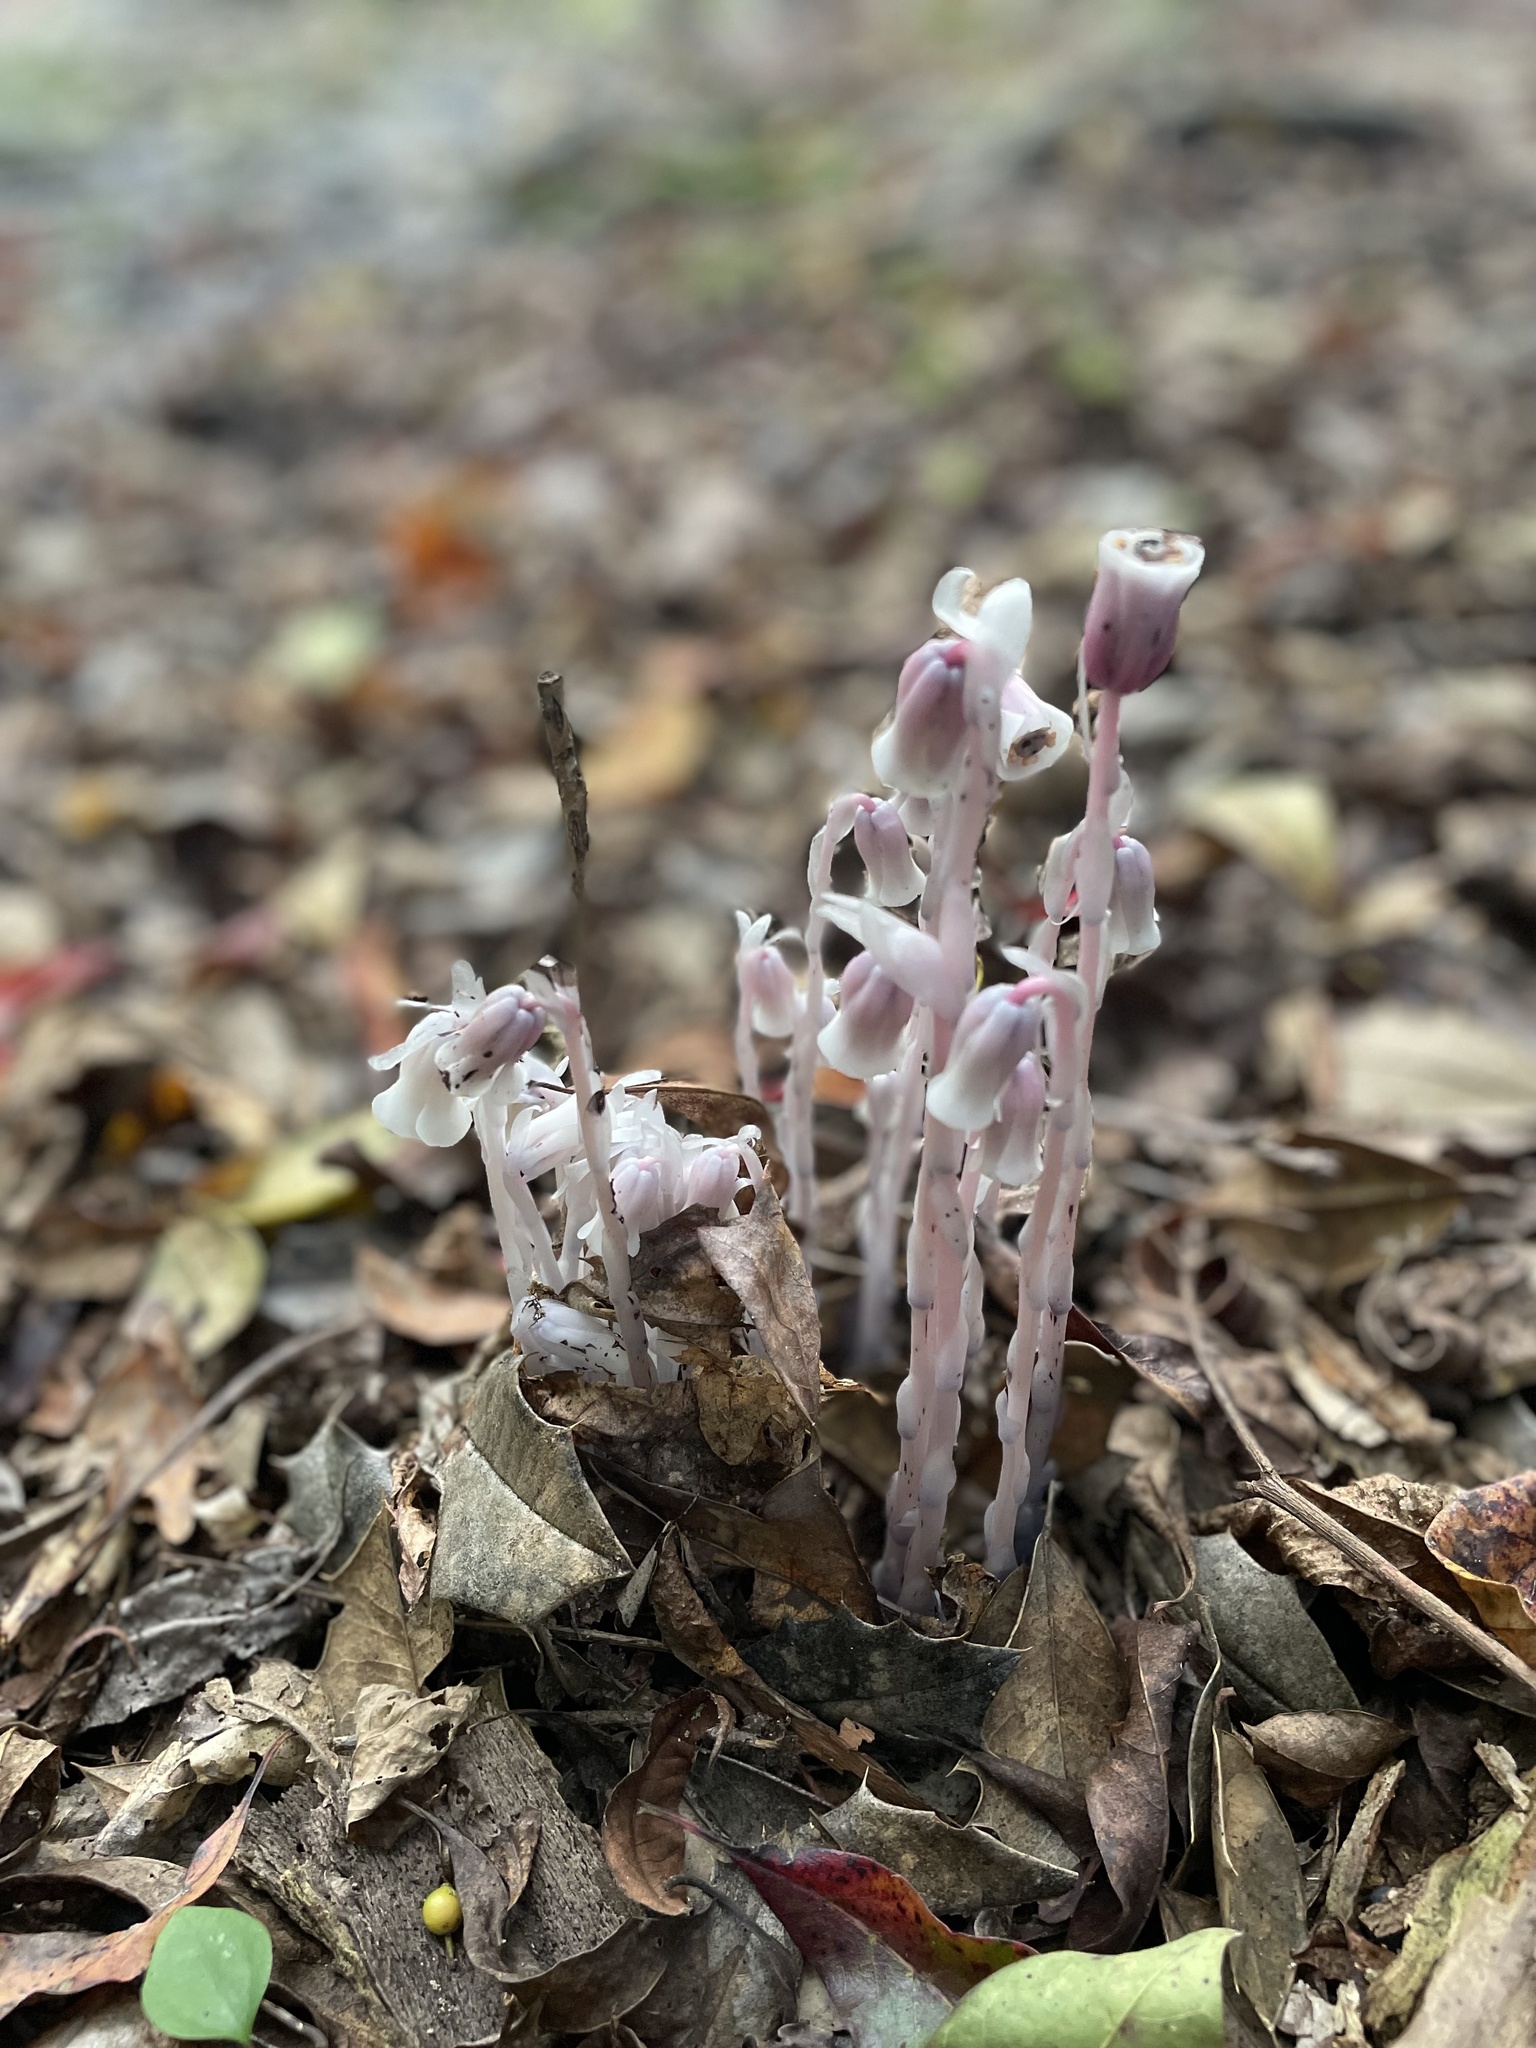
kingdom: Plantae
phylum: Tracheophyta
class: Magnoliopsida
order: Ericales
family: Ericaceae
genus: Monotropa
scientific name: Monotropa uniflora
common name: Convulsion root
